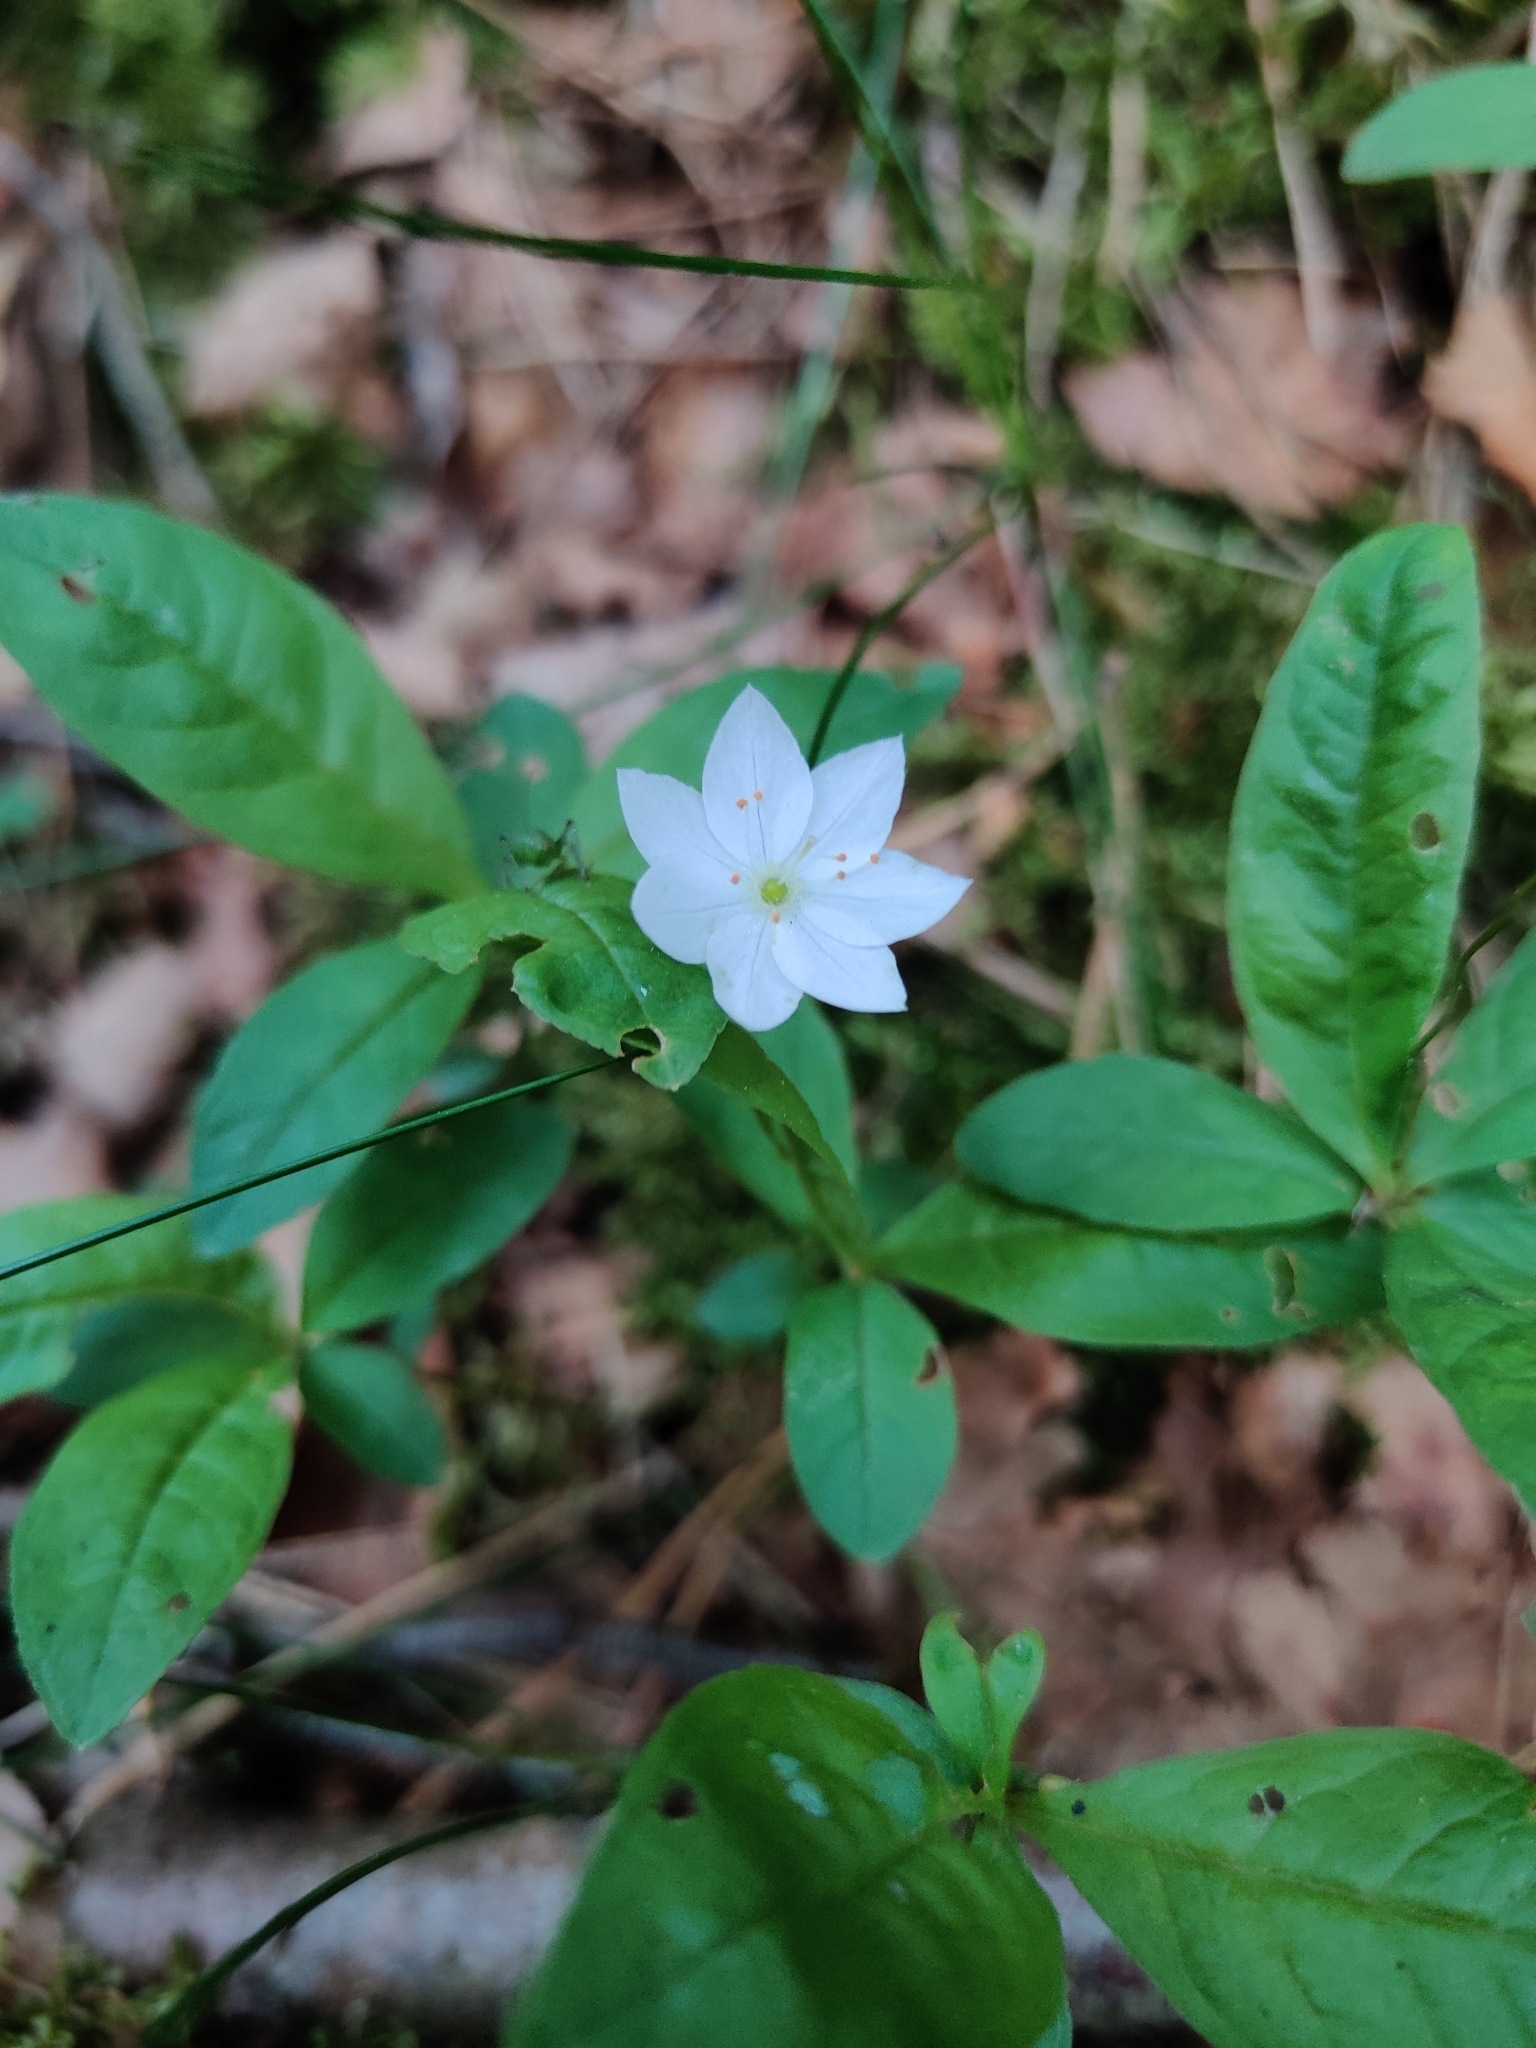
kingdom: Plantae
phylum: Tracheophyta
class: Magnoliopsida
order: Ericales
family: Primulaceae
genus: Lysimachia
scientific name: Lysimachia europaea
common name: Arctic starflower
